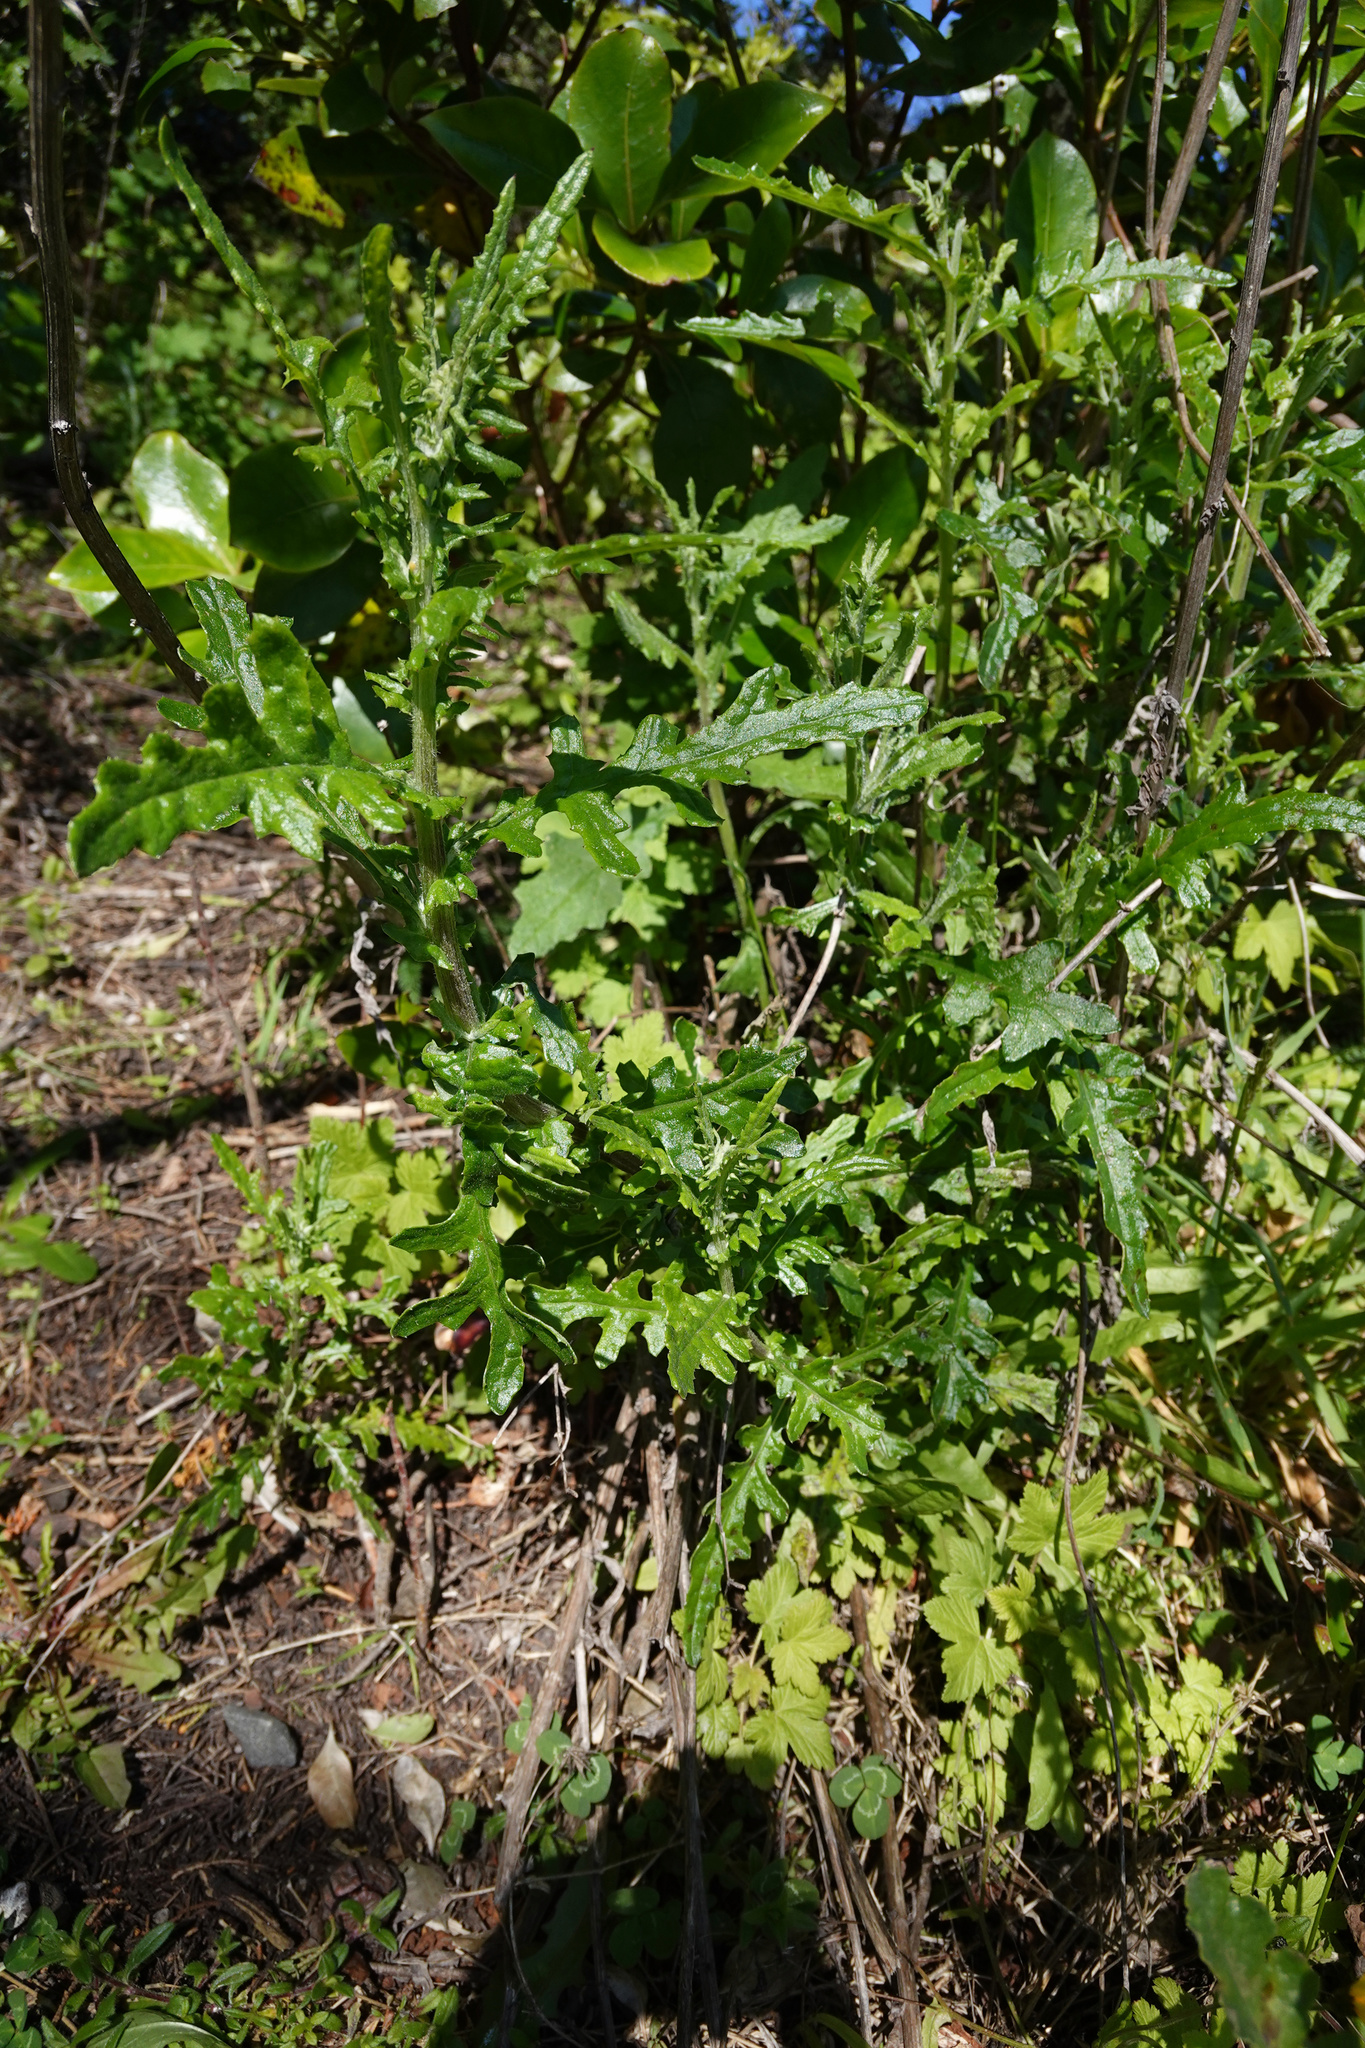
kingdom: Plantae
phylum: Tracheophyta
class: Magnoliopsida
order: Asterales
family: Asteraceae
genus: Senecio
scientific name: Senecio hispidulus
